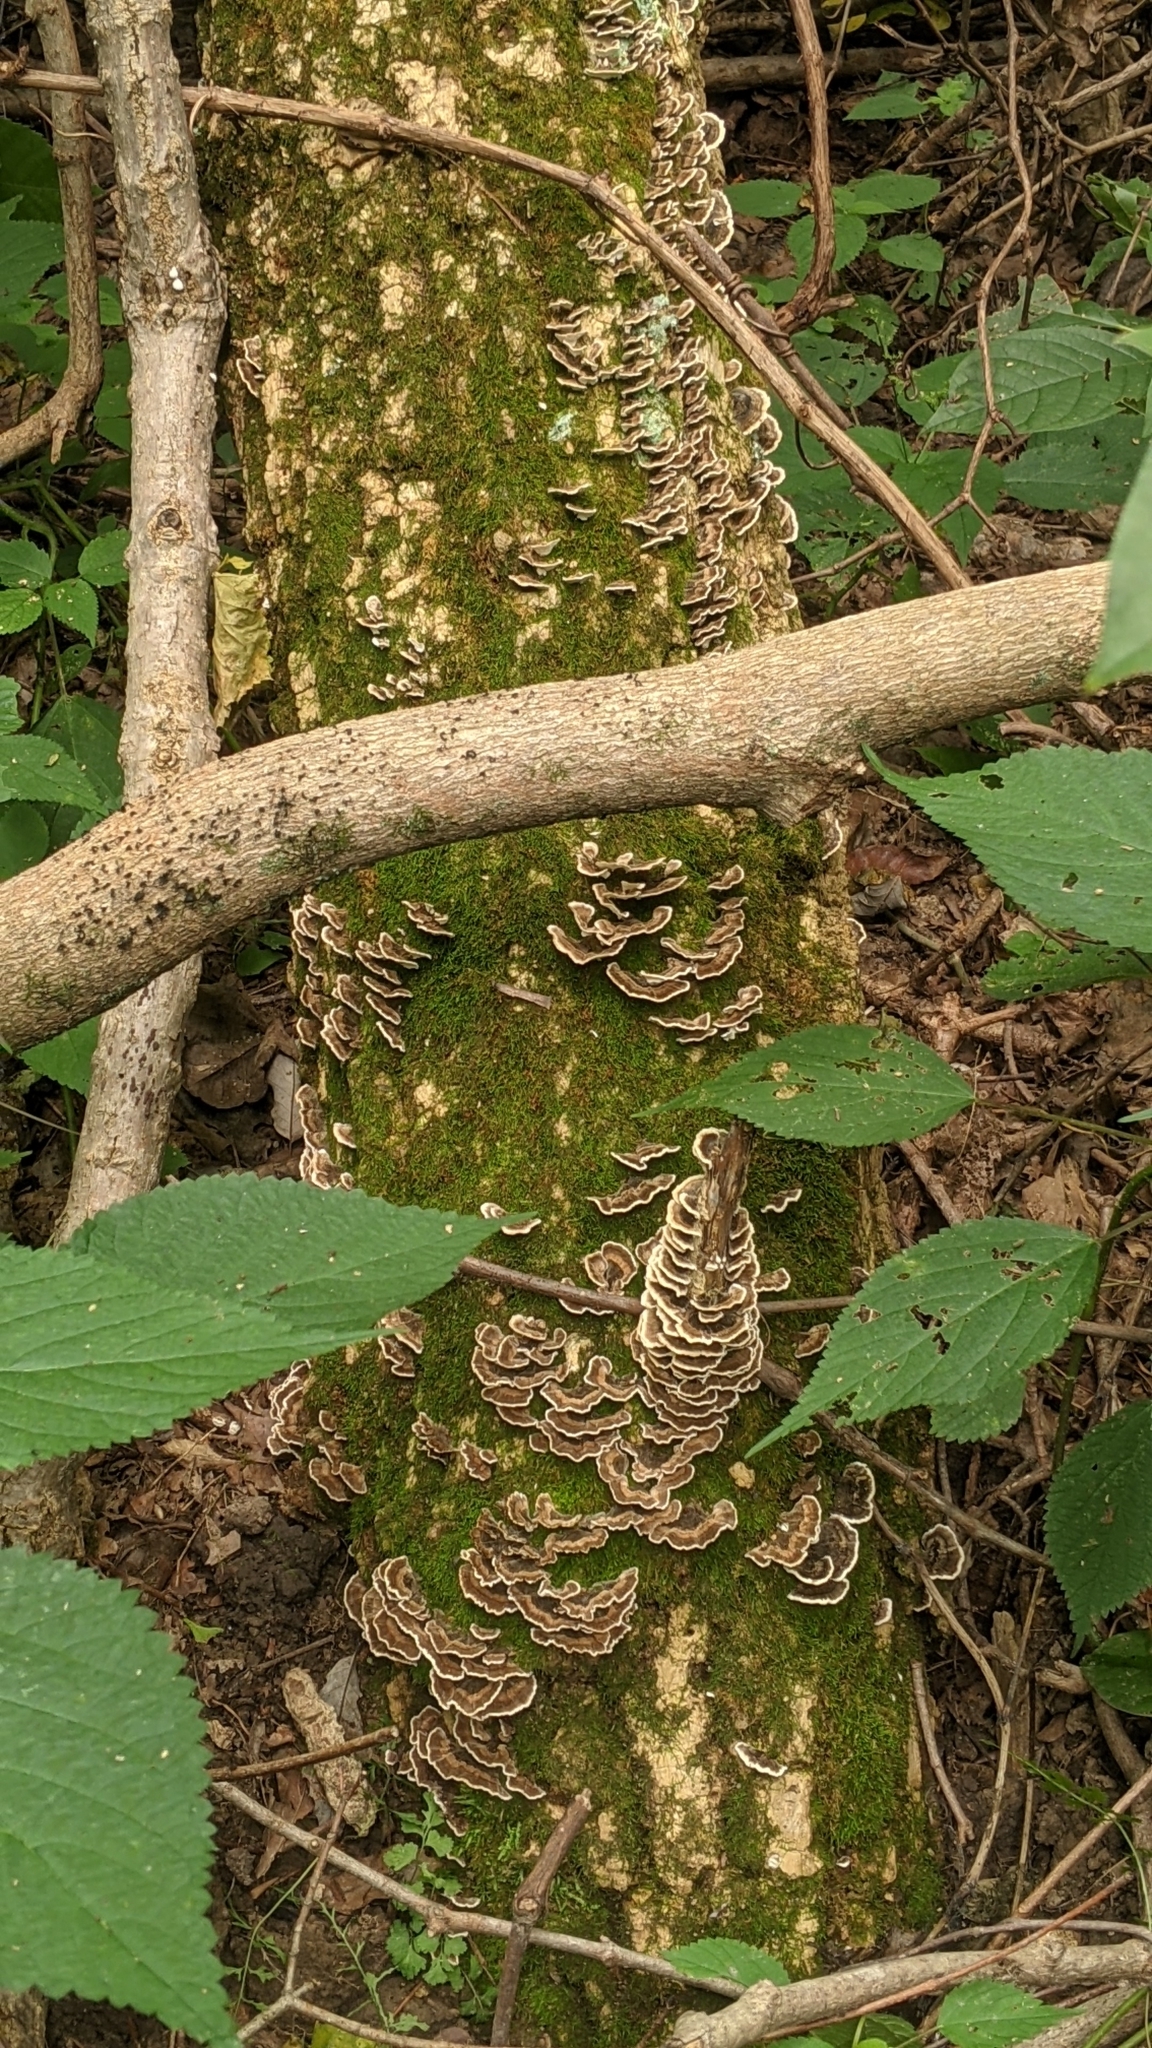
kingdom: Fungi
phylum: Basidiomycota
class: Agaricomycetes
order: Polyporales
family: Polyporaceae
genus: Trametes
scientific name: Trametes versicolor
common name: Turkeytail
